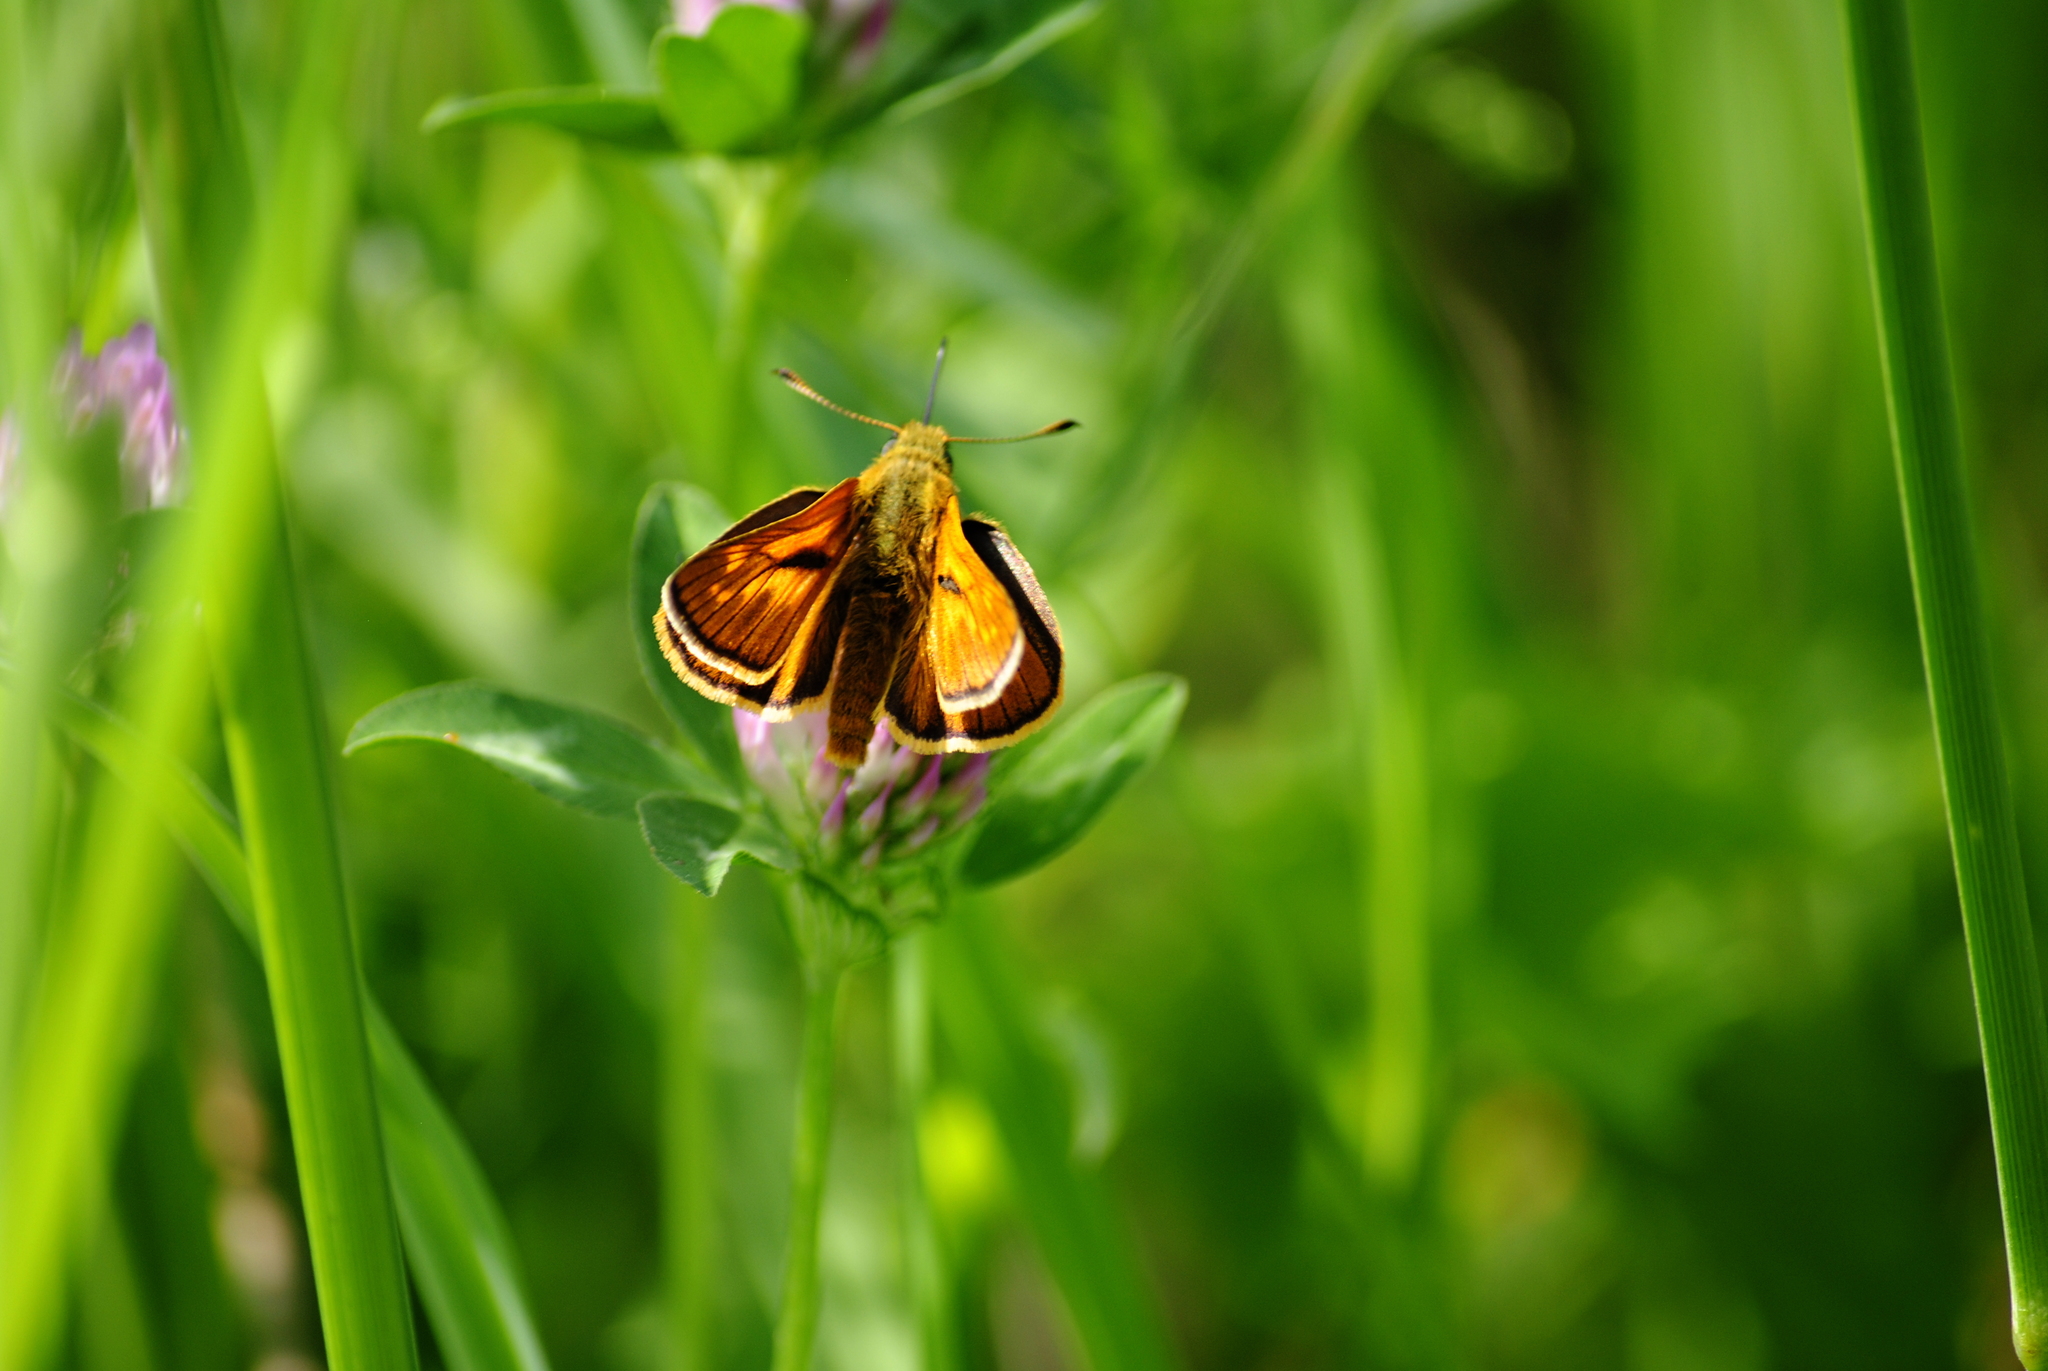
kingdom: Animalia
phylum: Arthropoda
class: Insecta
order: Lepidoptera
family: Hesperiidae
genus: Ochlodes
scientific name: Ochlodes venata
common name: Large skipper
